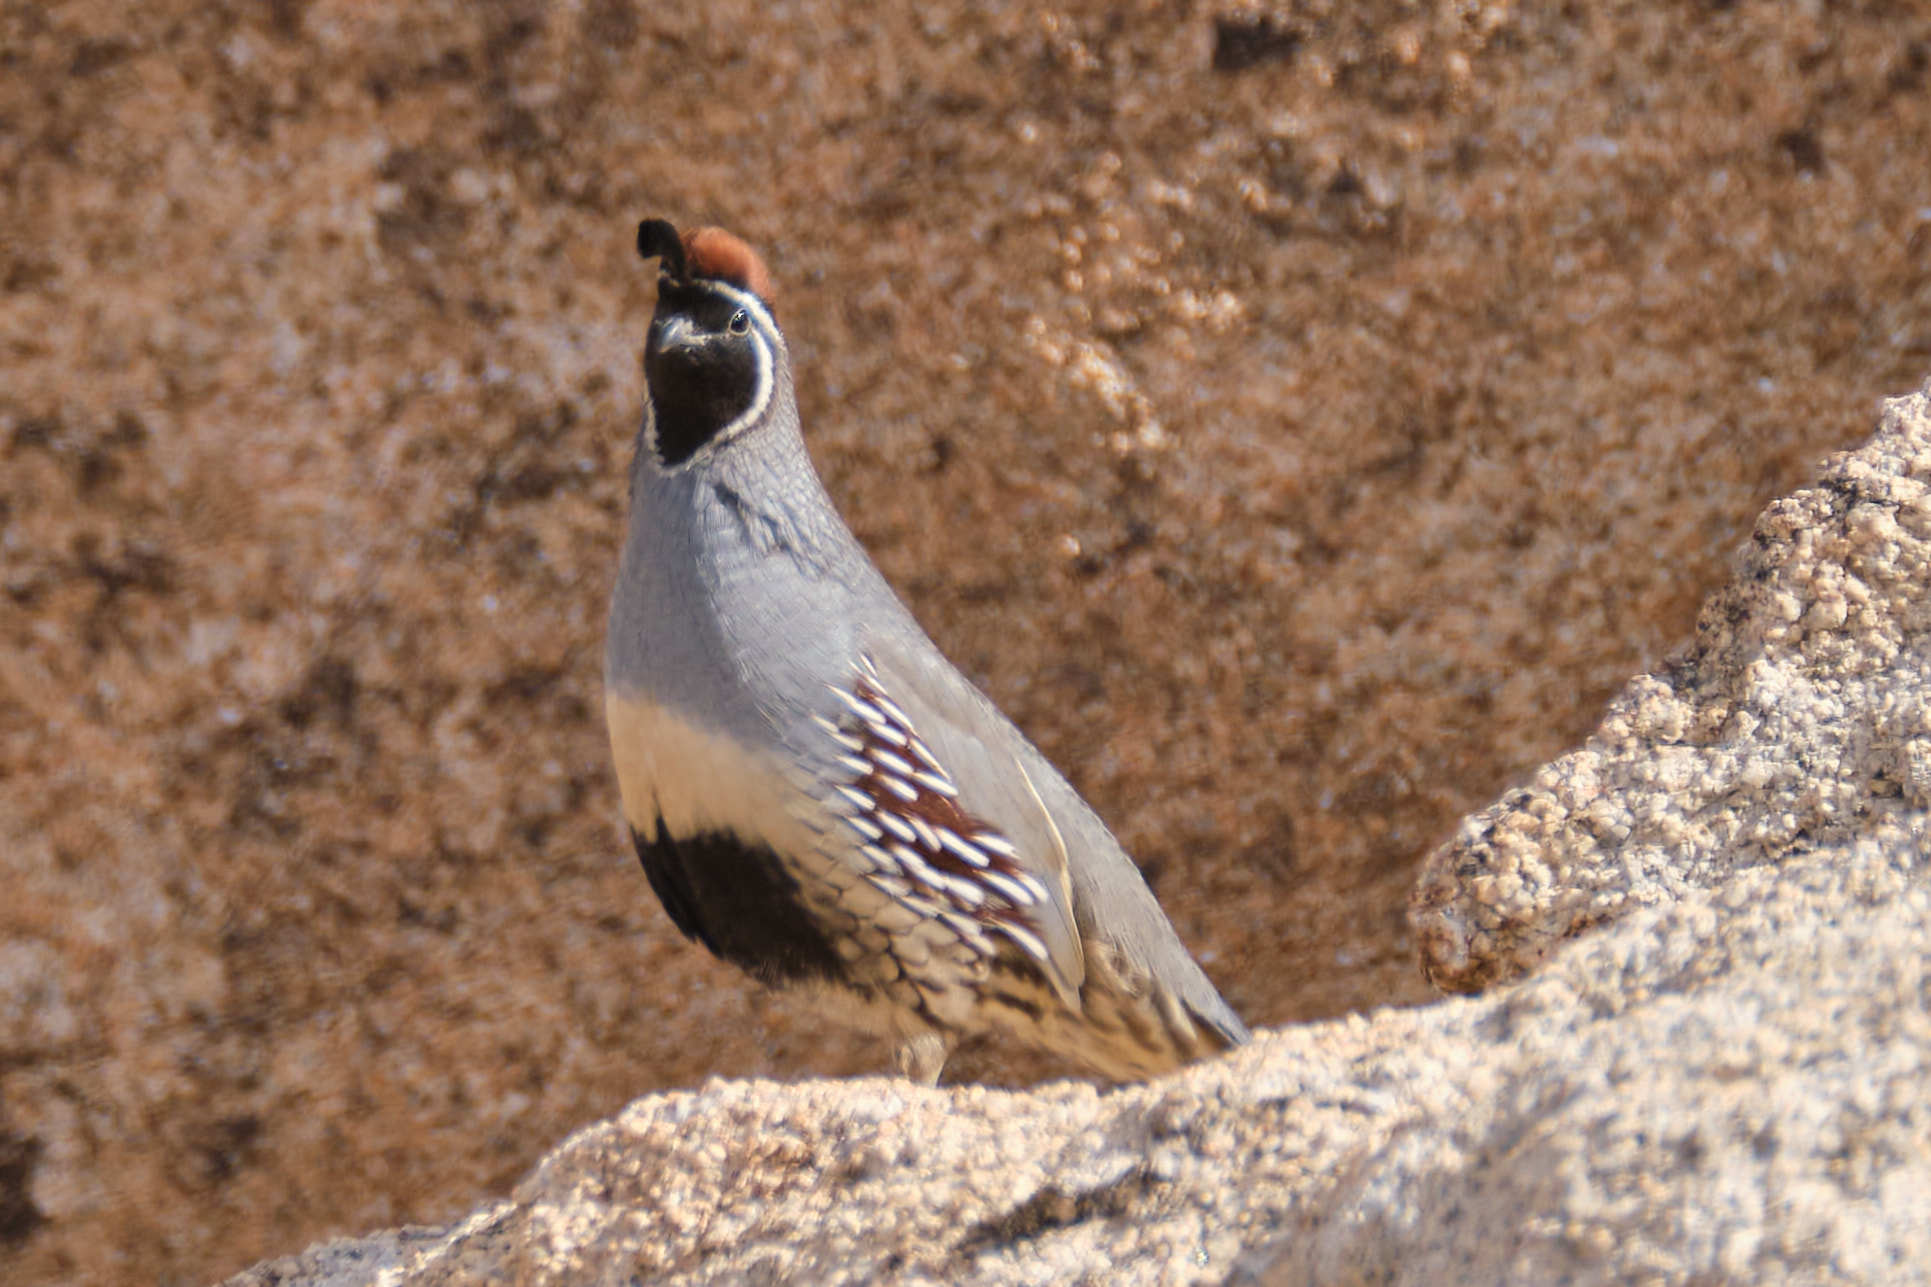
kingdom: Animalia
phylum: Chordata
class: Aves
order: Galliformes
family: Odontophoridae
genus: Callipepla
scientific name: Callipepla gambelii
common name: Gambel's quail
